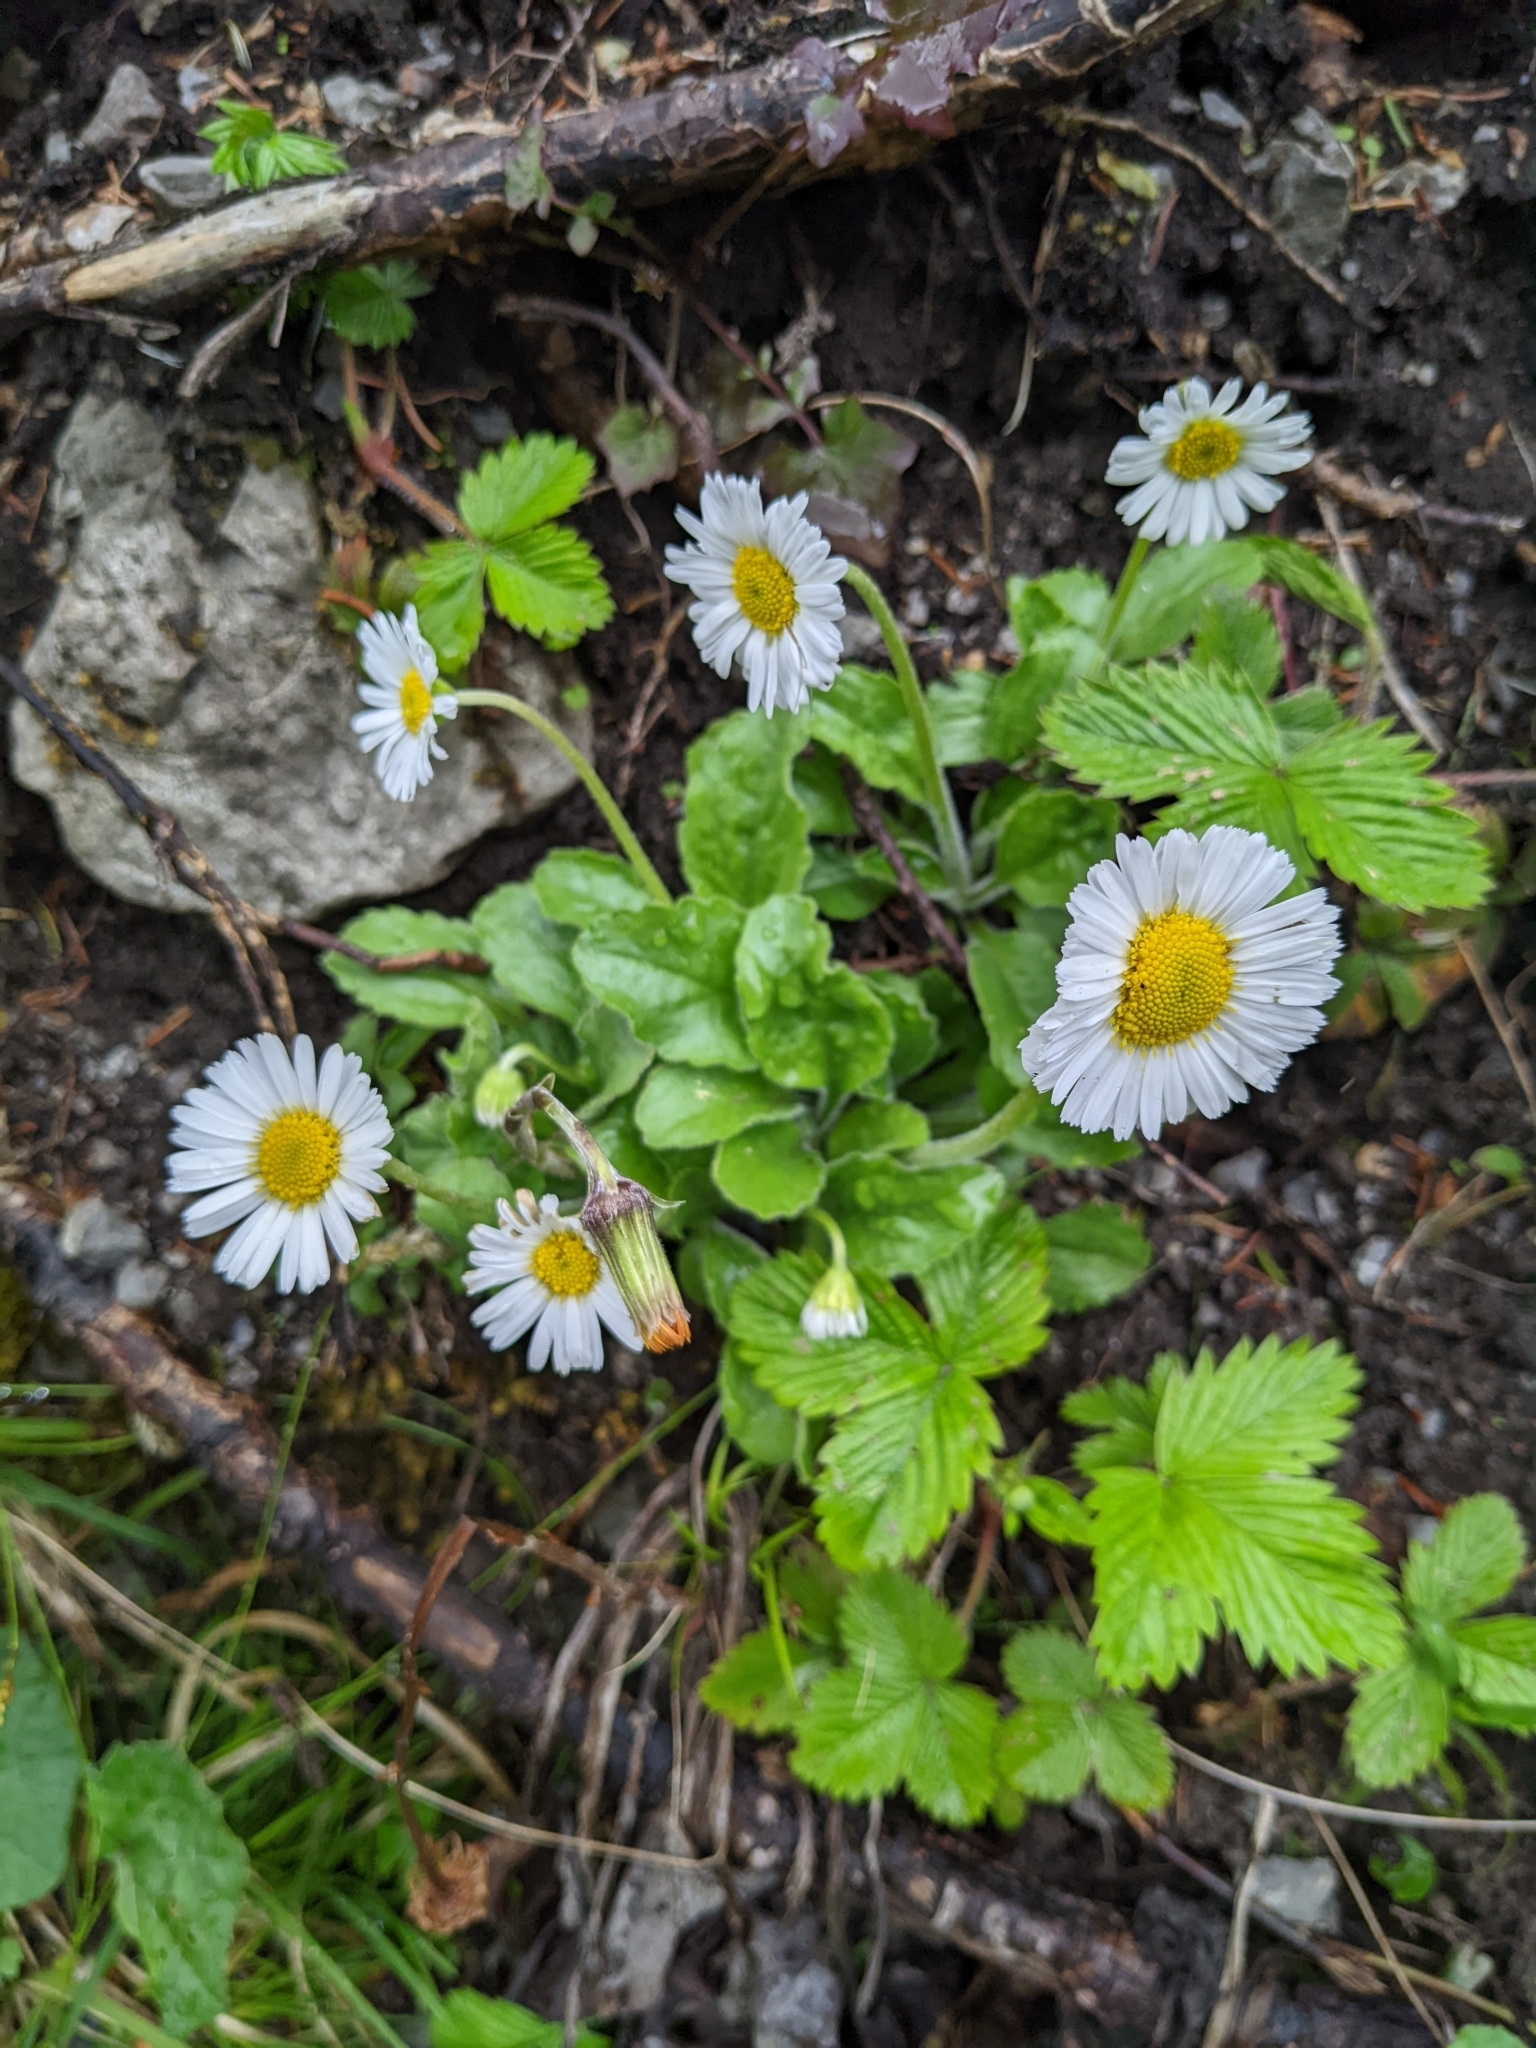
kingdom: Plantae
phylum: Tracheophyta
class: Magnoliopsida
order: Asterales
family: Asteraceae
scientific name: Asteraceae
